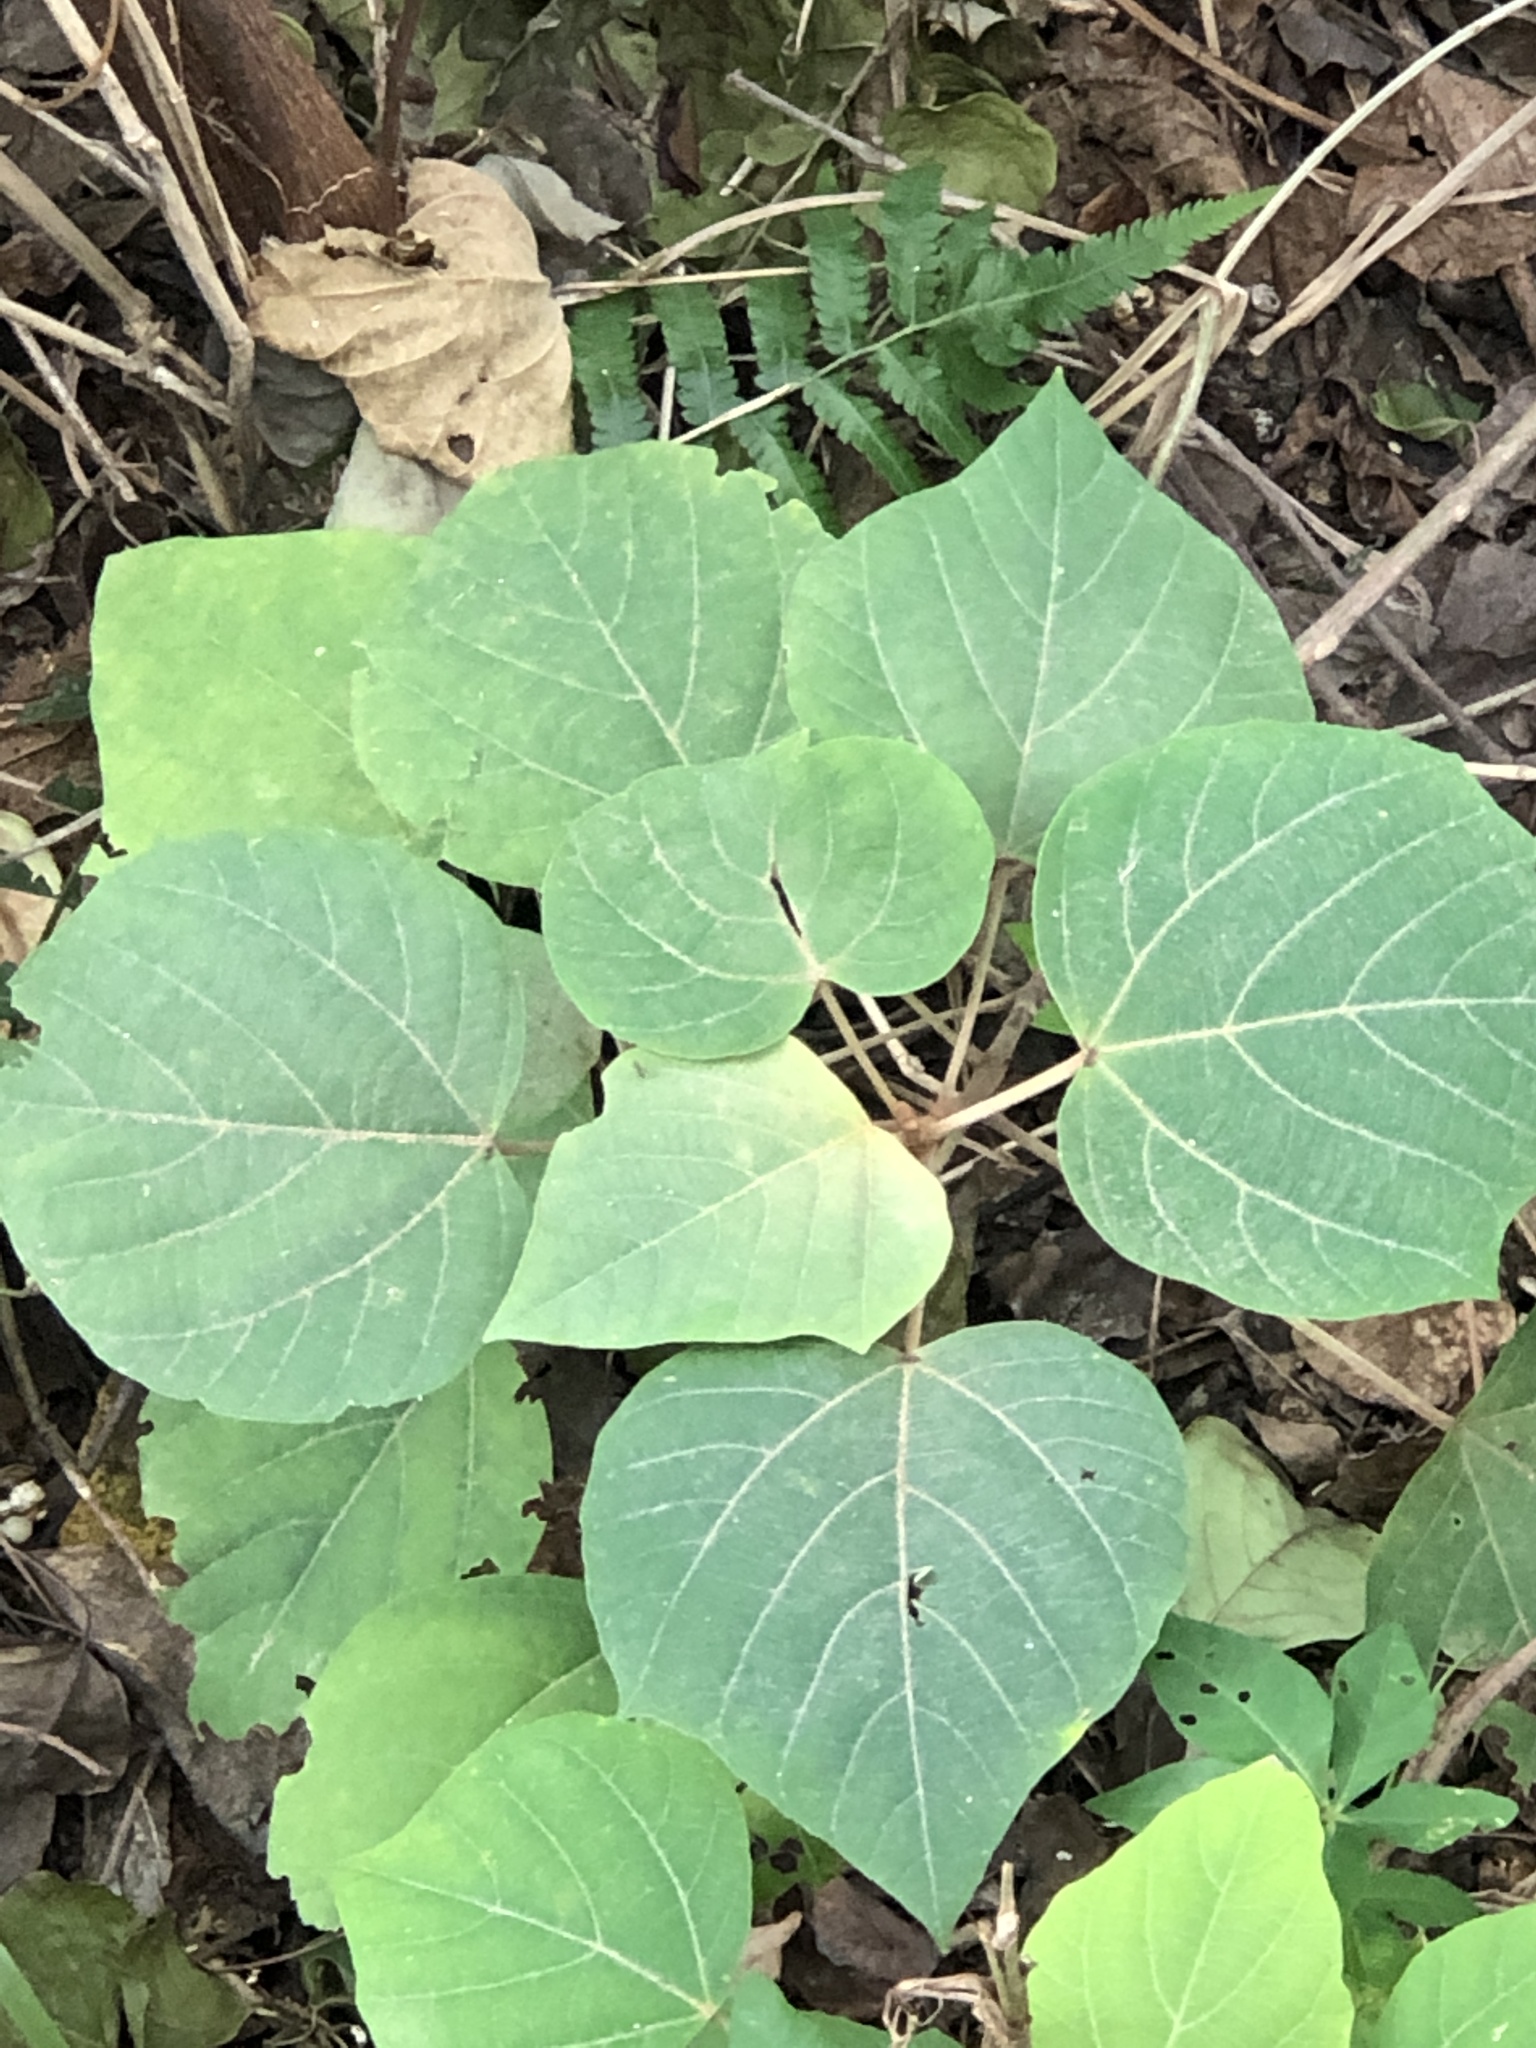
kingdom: Plantae
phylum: Tracheophyta
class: Magnoliopsida
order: Malpighiales
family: Euphorbiaceae
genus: Mallotus
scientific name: Mallotus japonicus
